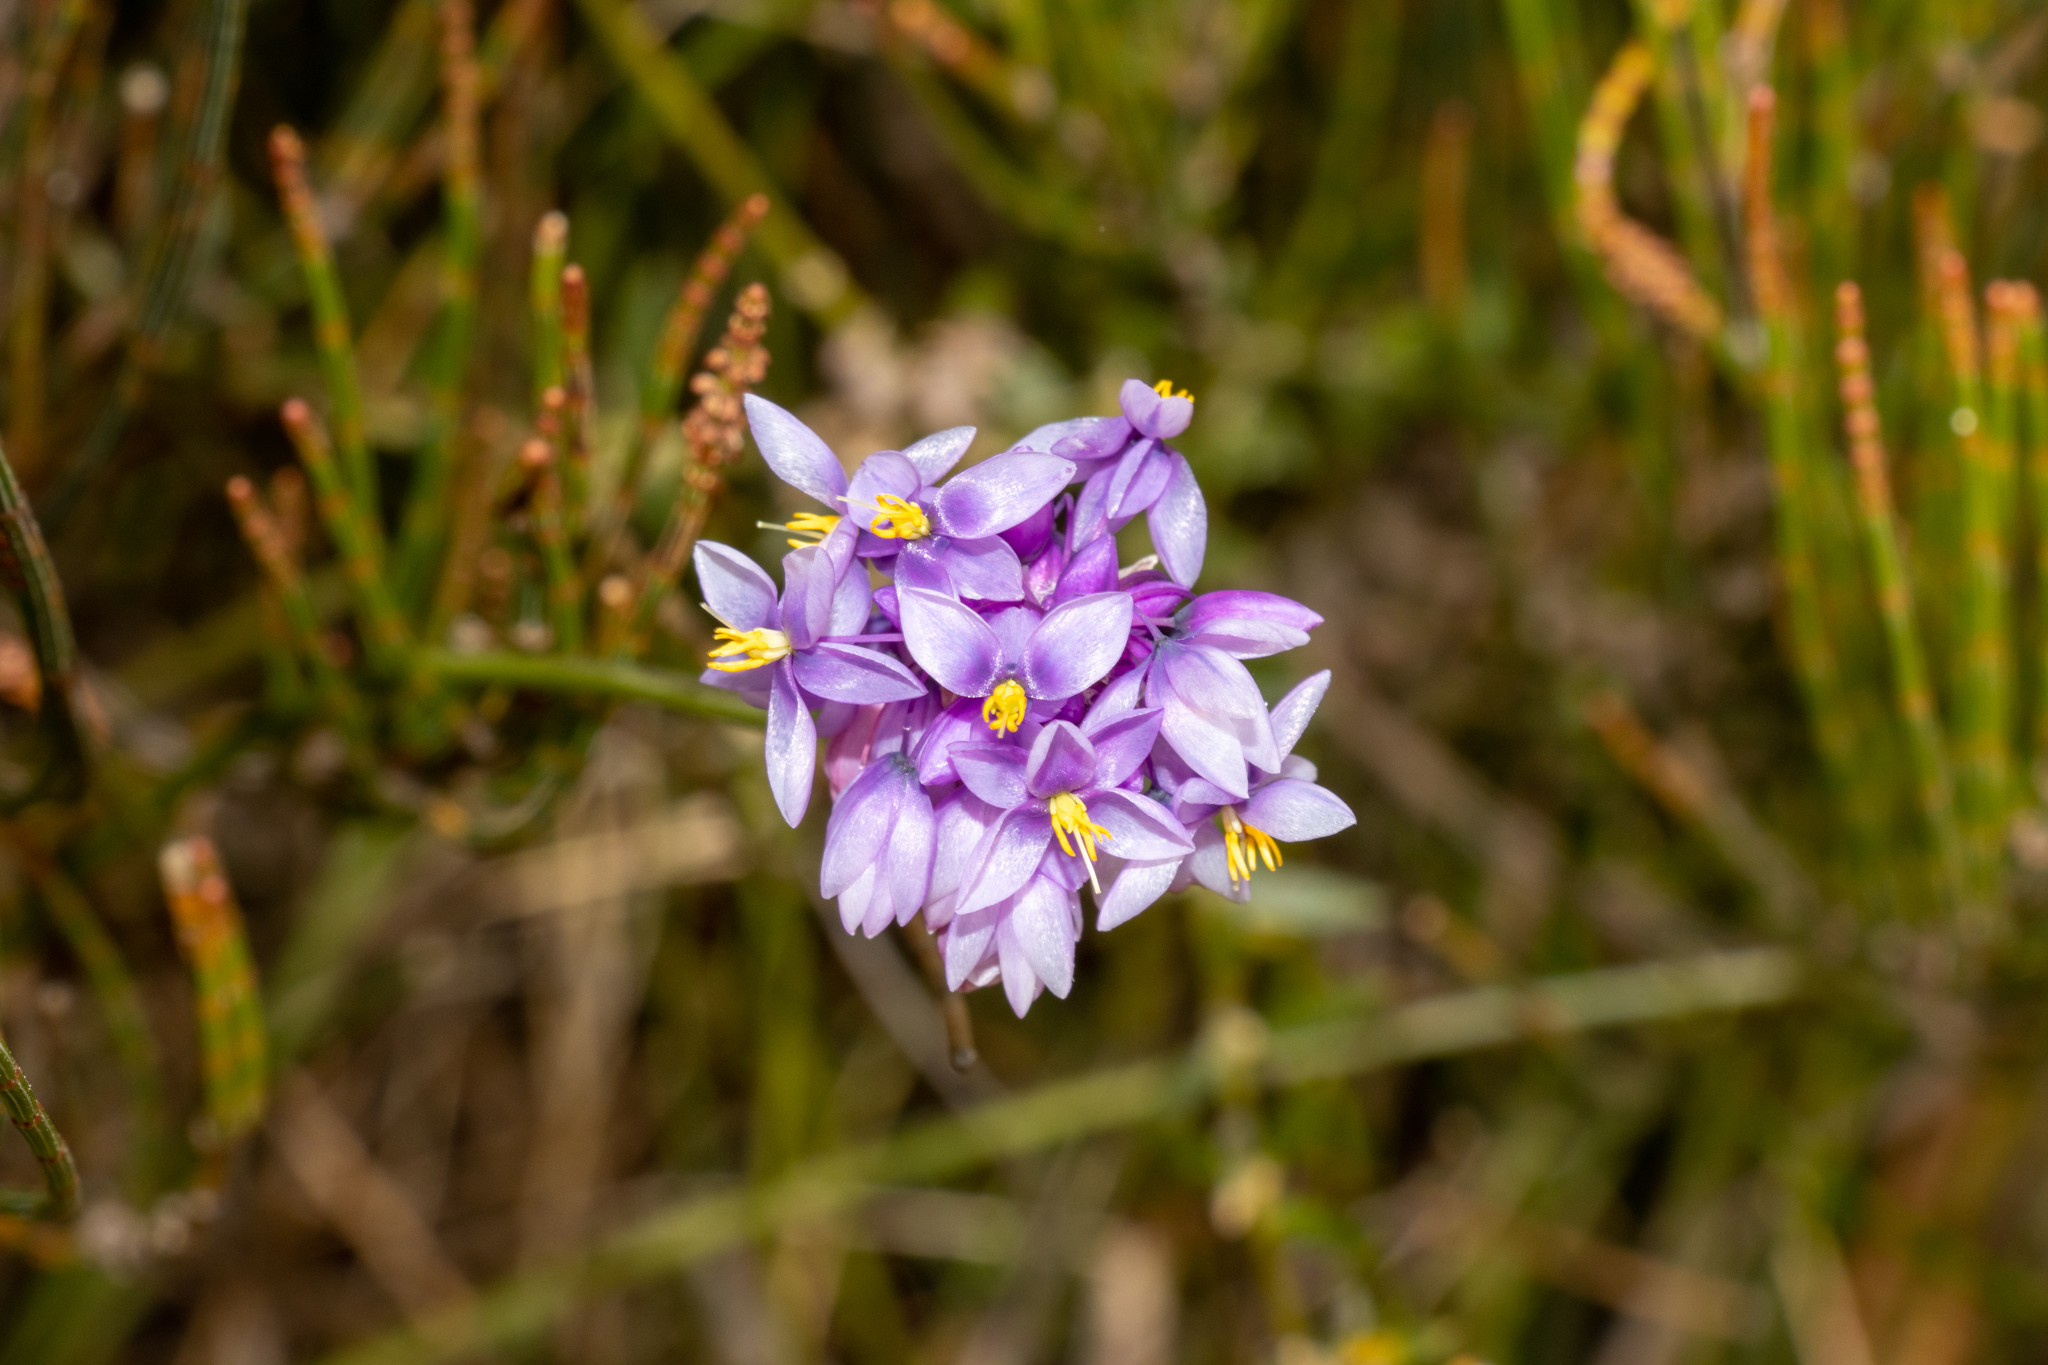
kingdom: Plantae
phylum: Tracheophyta
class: Liliopsida
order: Asparagales
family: Asparagaceae
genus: Sowerbaea
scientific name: Sowerbaea juncea
